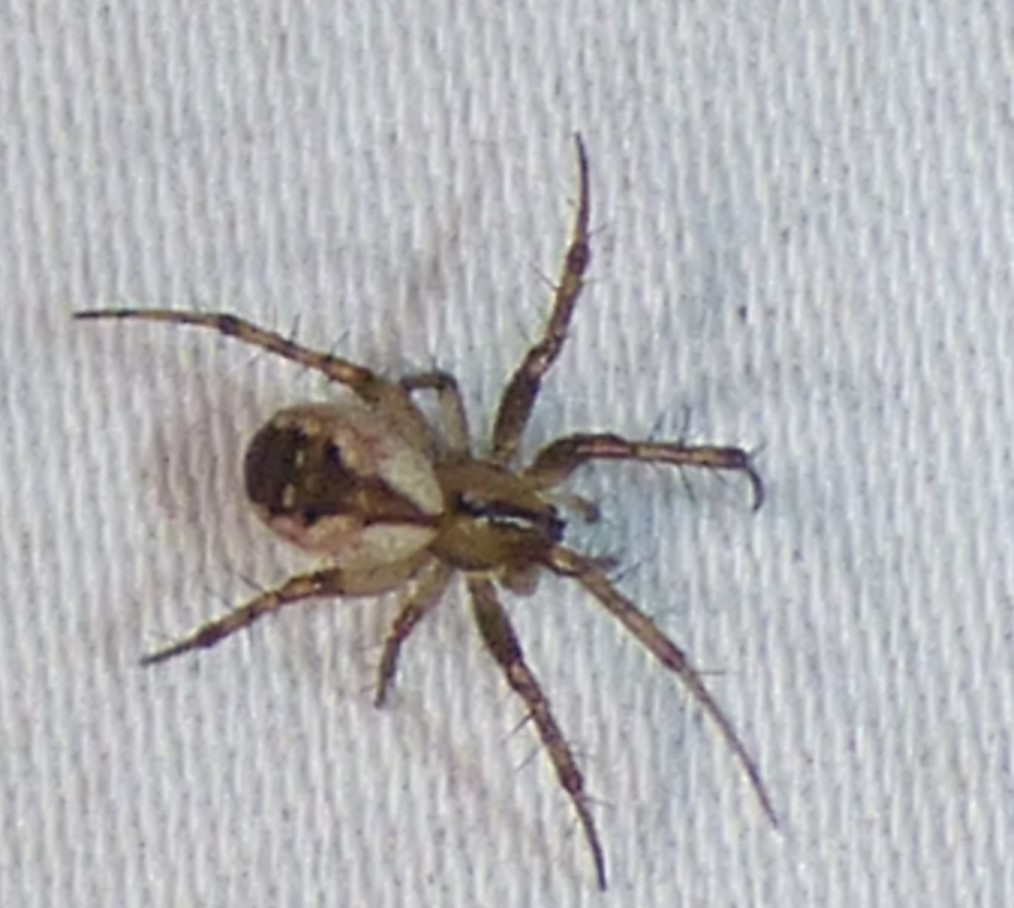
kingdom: Animalia
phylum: Arthropoda
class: Arachnida
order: Araneae
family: Araneidae
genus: Mangora
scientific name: Mangora placida
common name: Tuft-legged orbweaver
